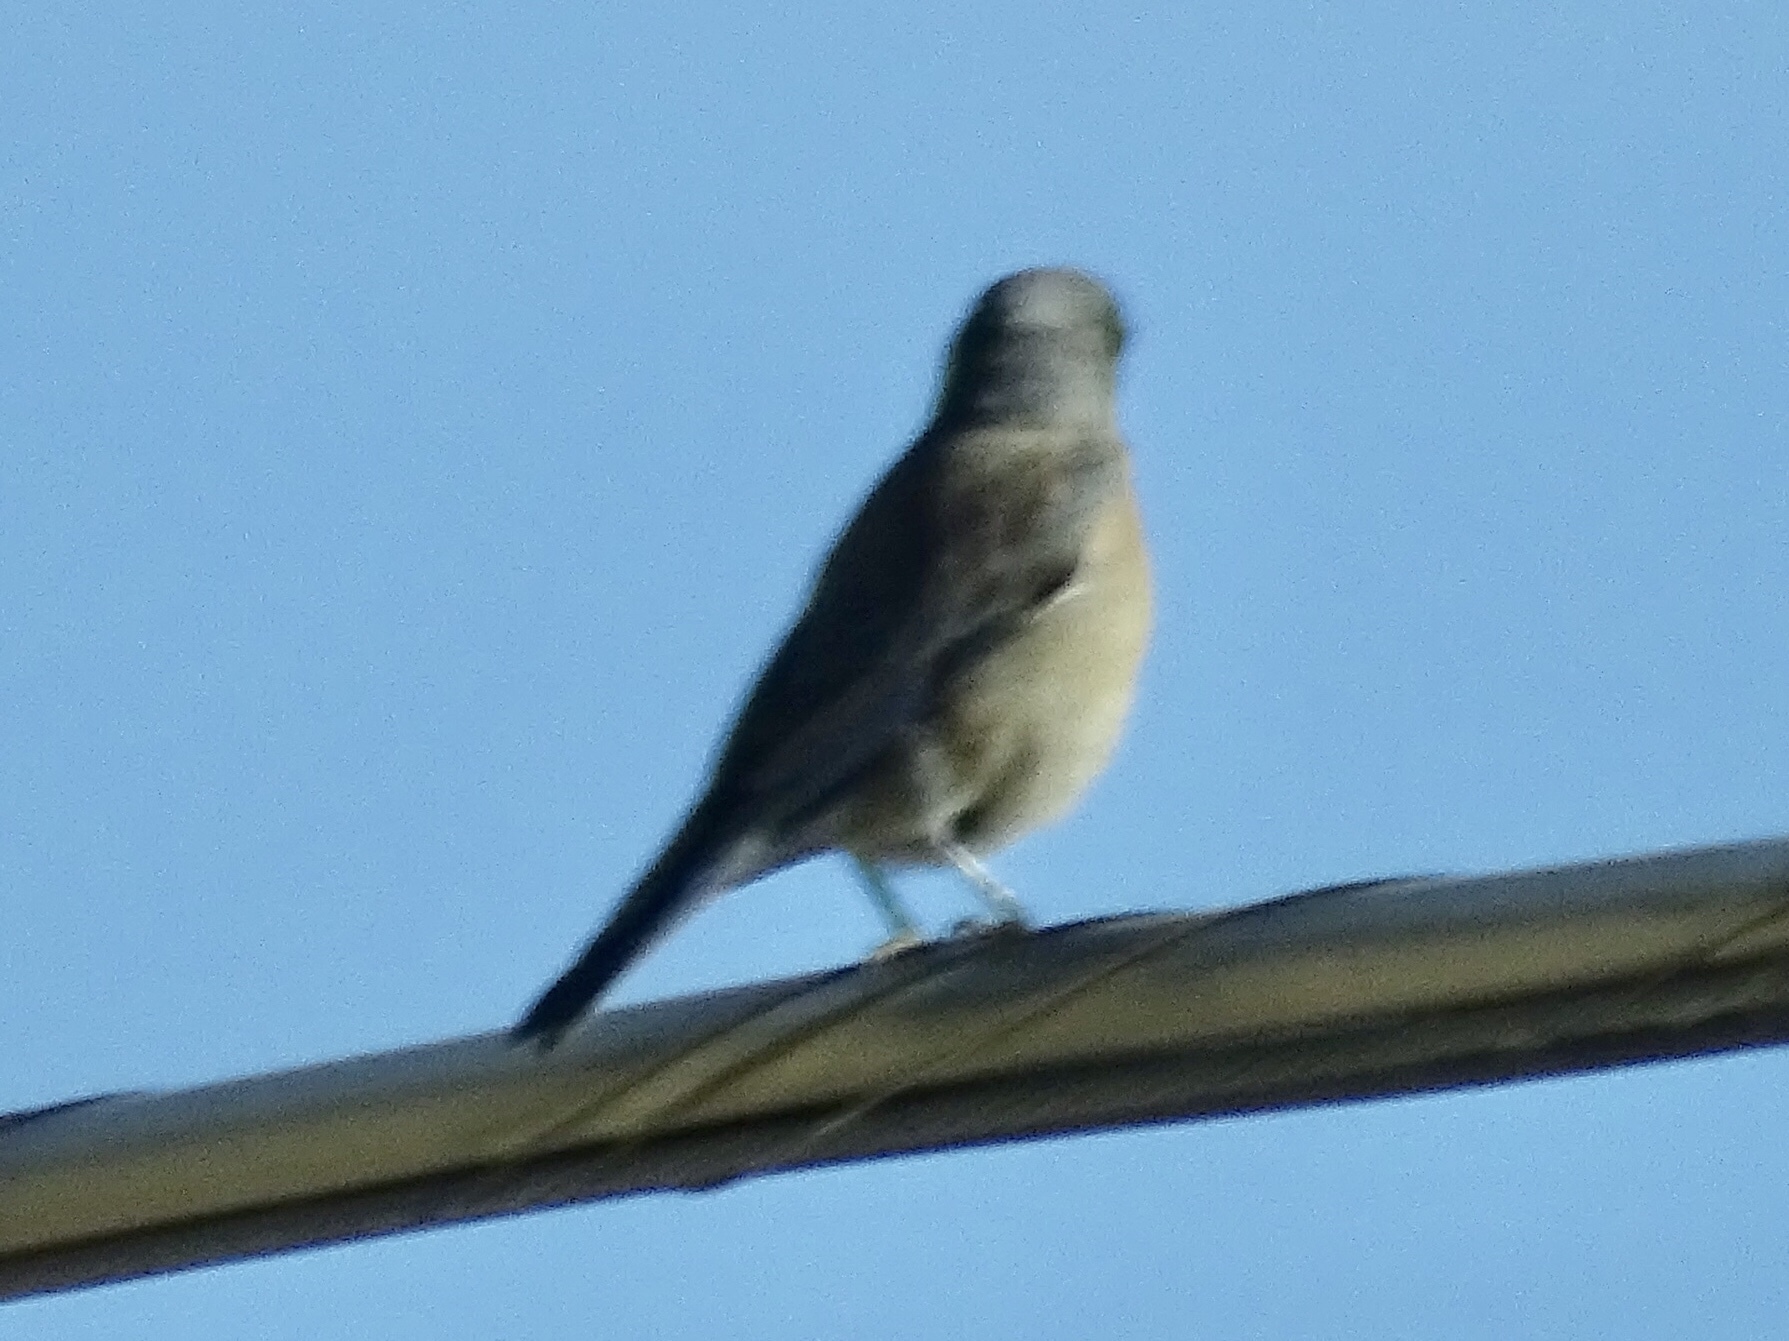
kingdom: Animalia
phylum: Chordata
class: Aves
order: Passeriformes
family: Turdidae
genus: Sialia
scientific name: Sialia mexicana
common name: Western bluebird
